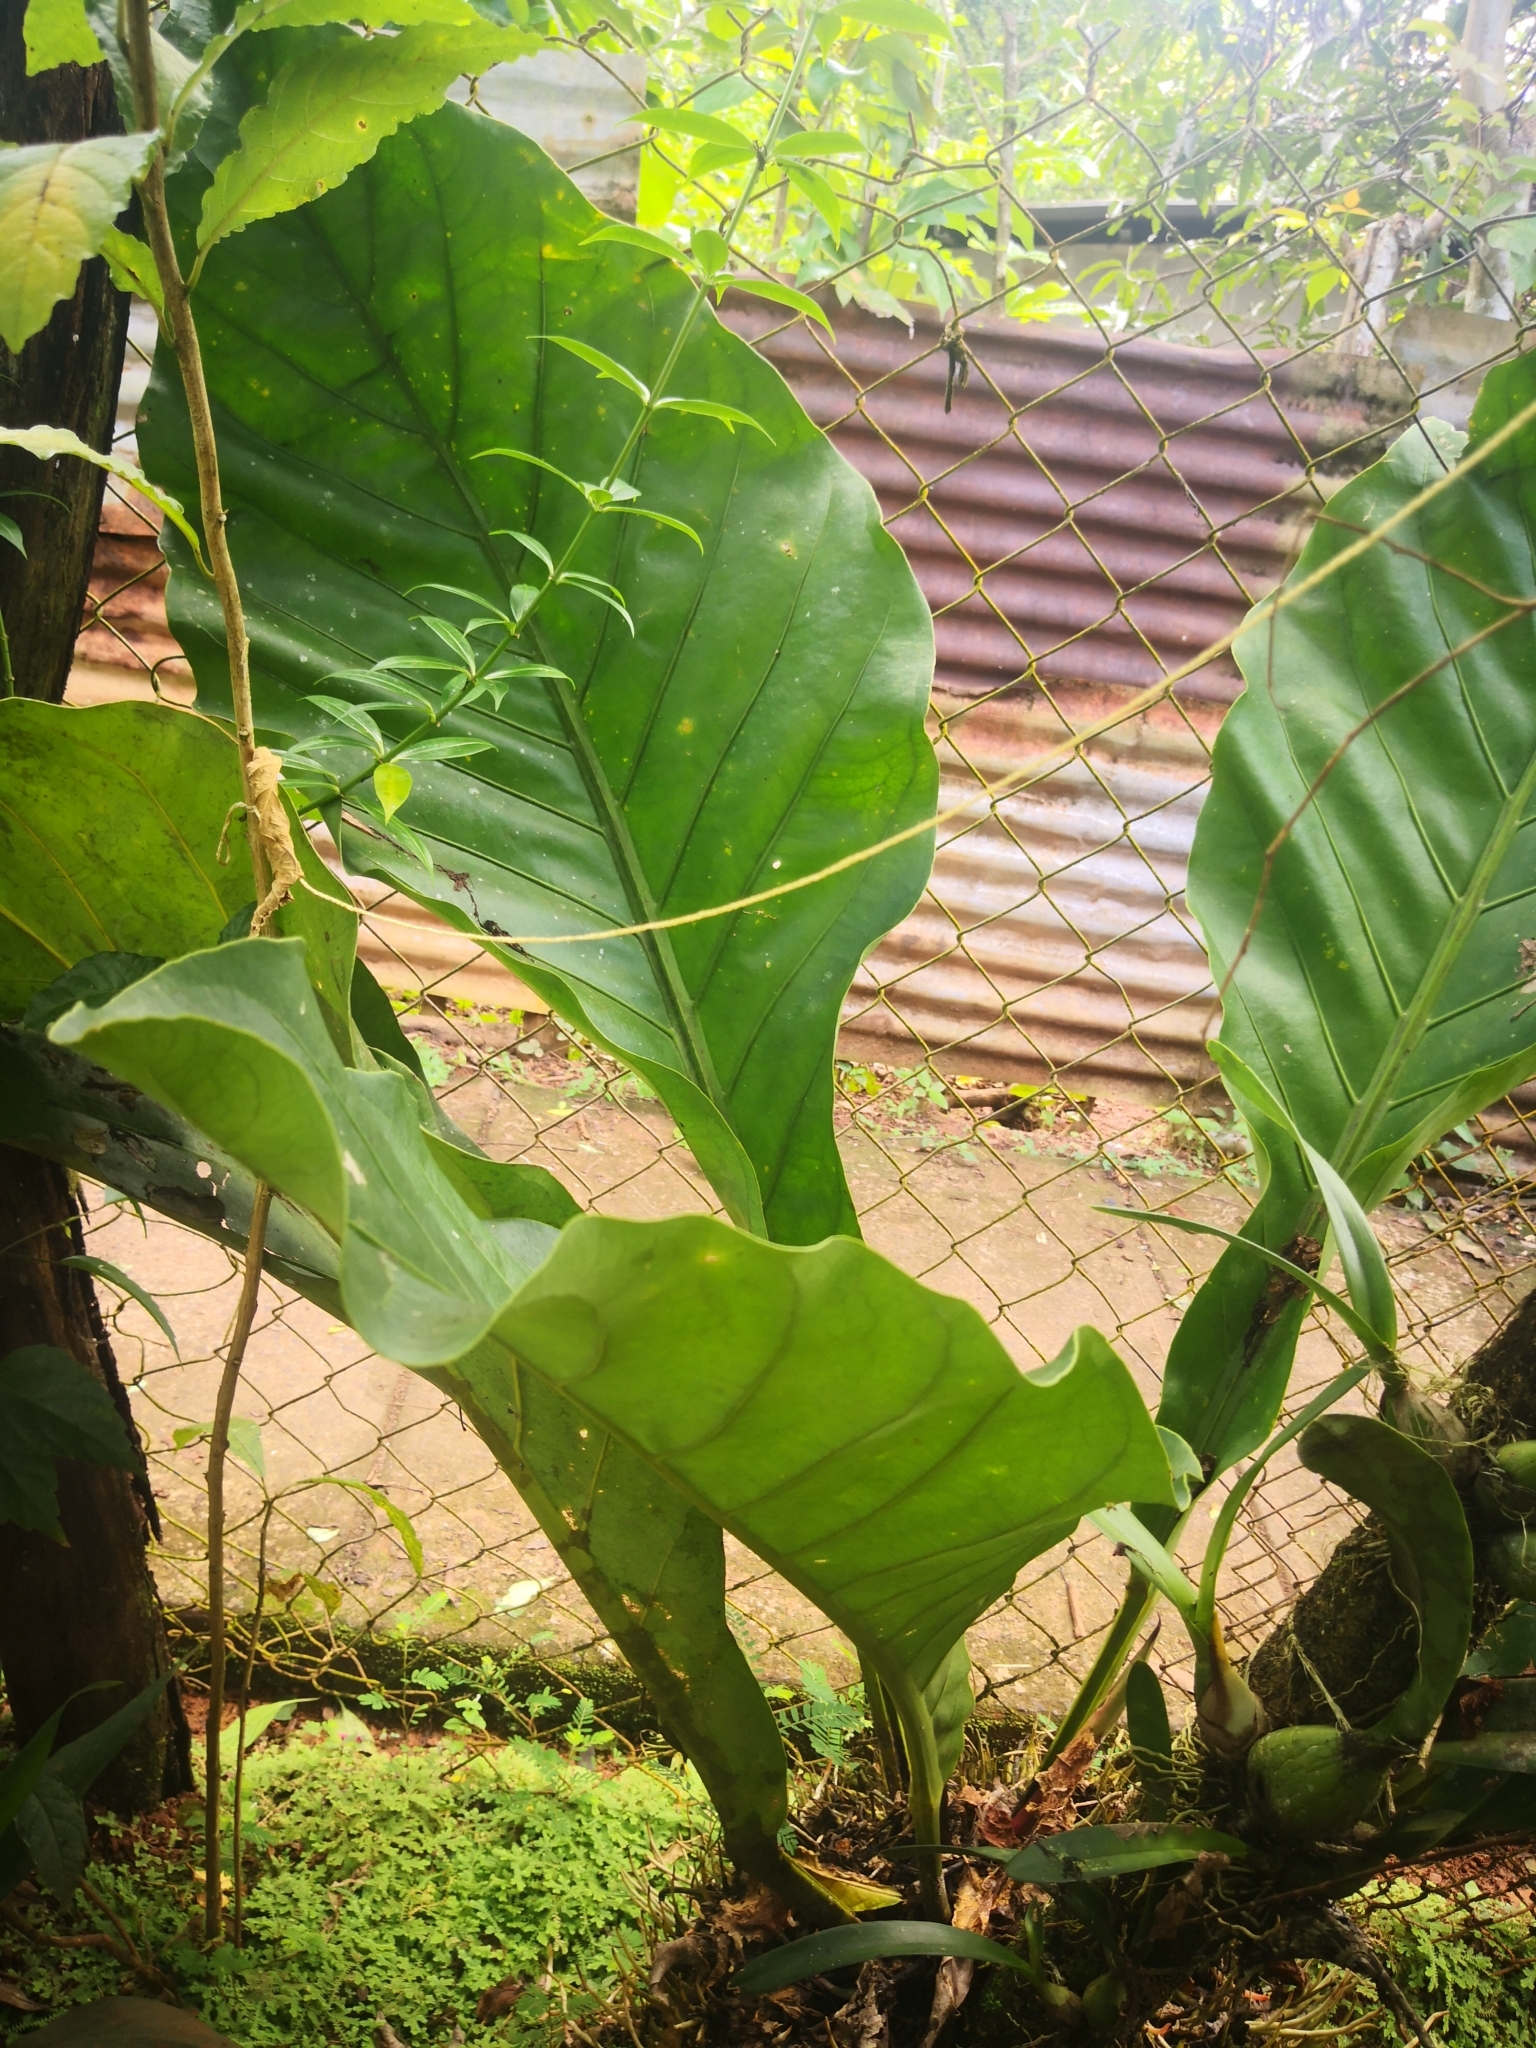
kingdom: Plantae
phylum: Tracheophyta
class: Liliopsida
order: Alismatales
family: Araceae
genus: Anthurium
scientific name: Anthurium hookeri
